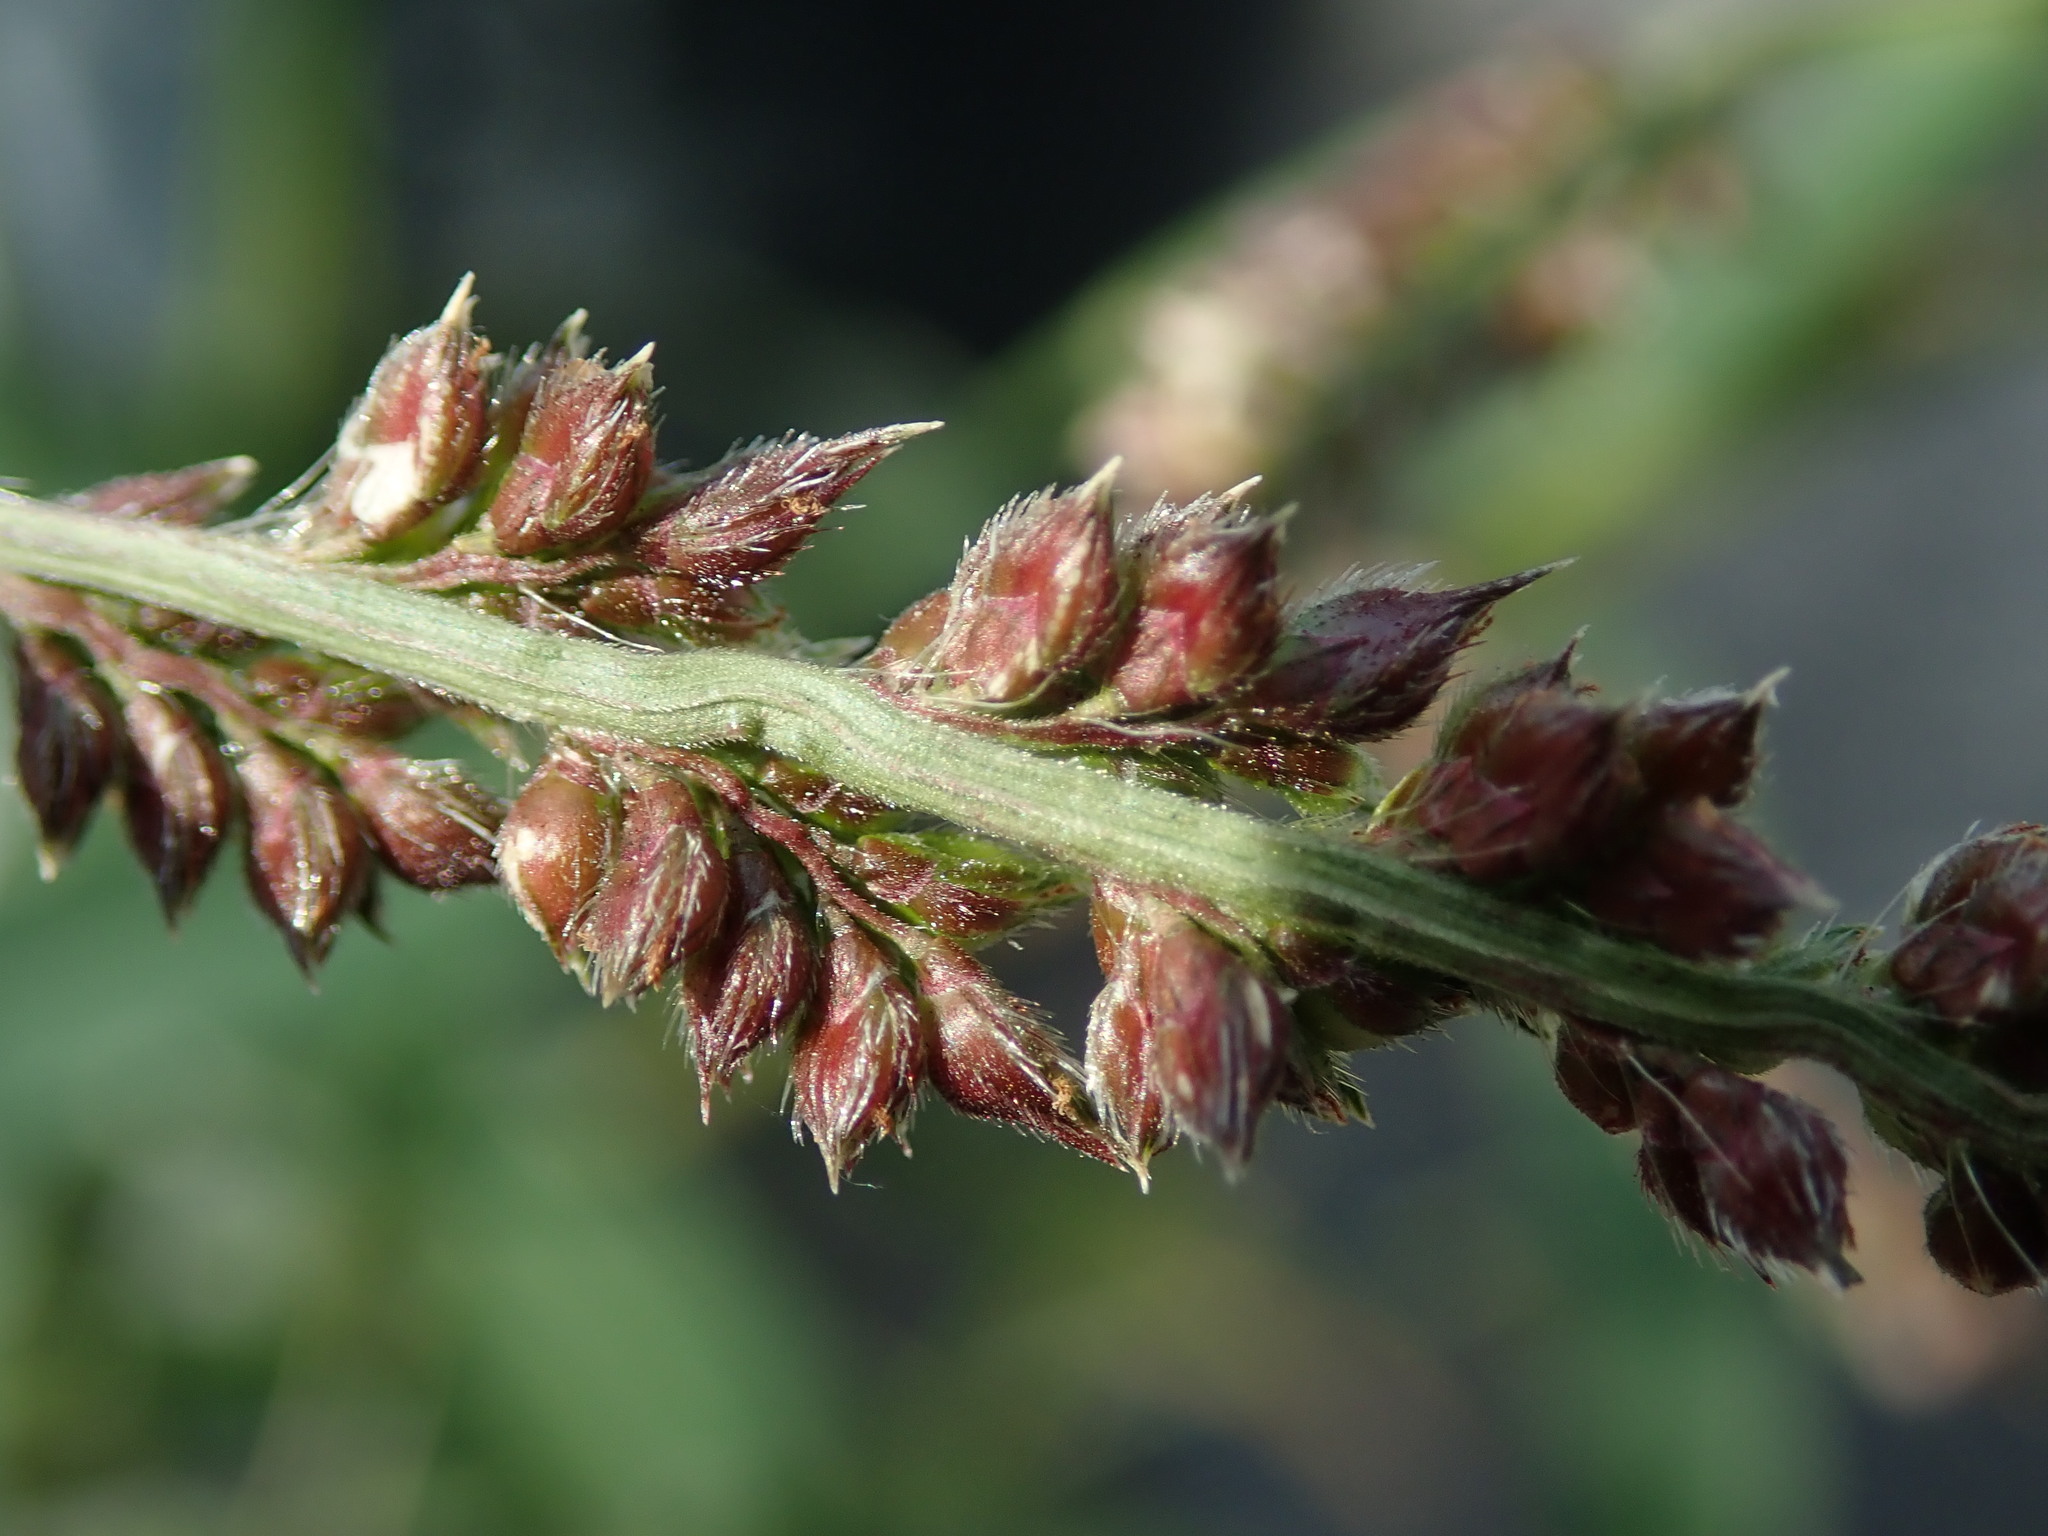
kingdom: Plantae
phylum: Tracheophyta
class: Liliopsida
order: Poales
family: Poaceae
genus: Echinochloa
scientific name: Echinochloa crus-galli
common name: Cockspur
